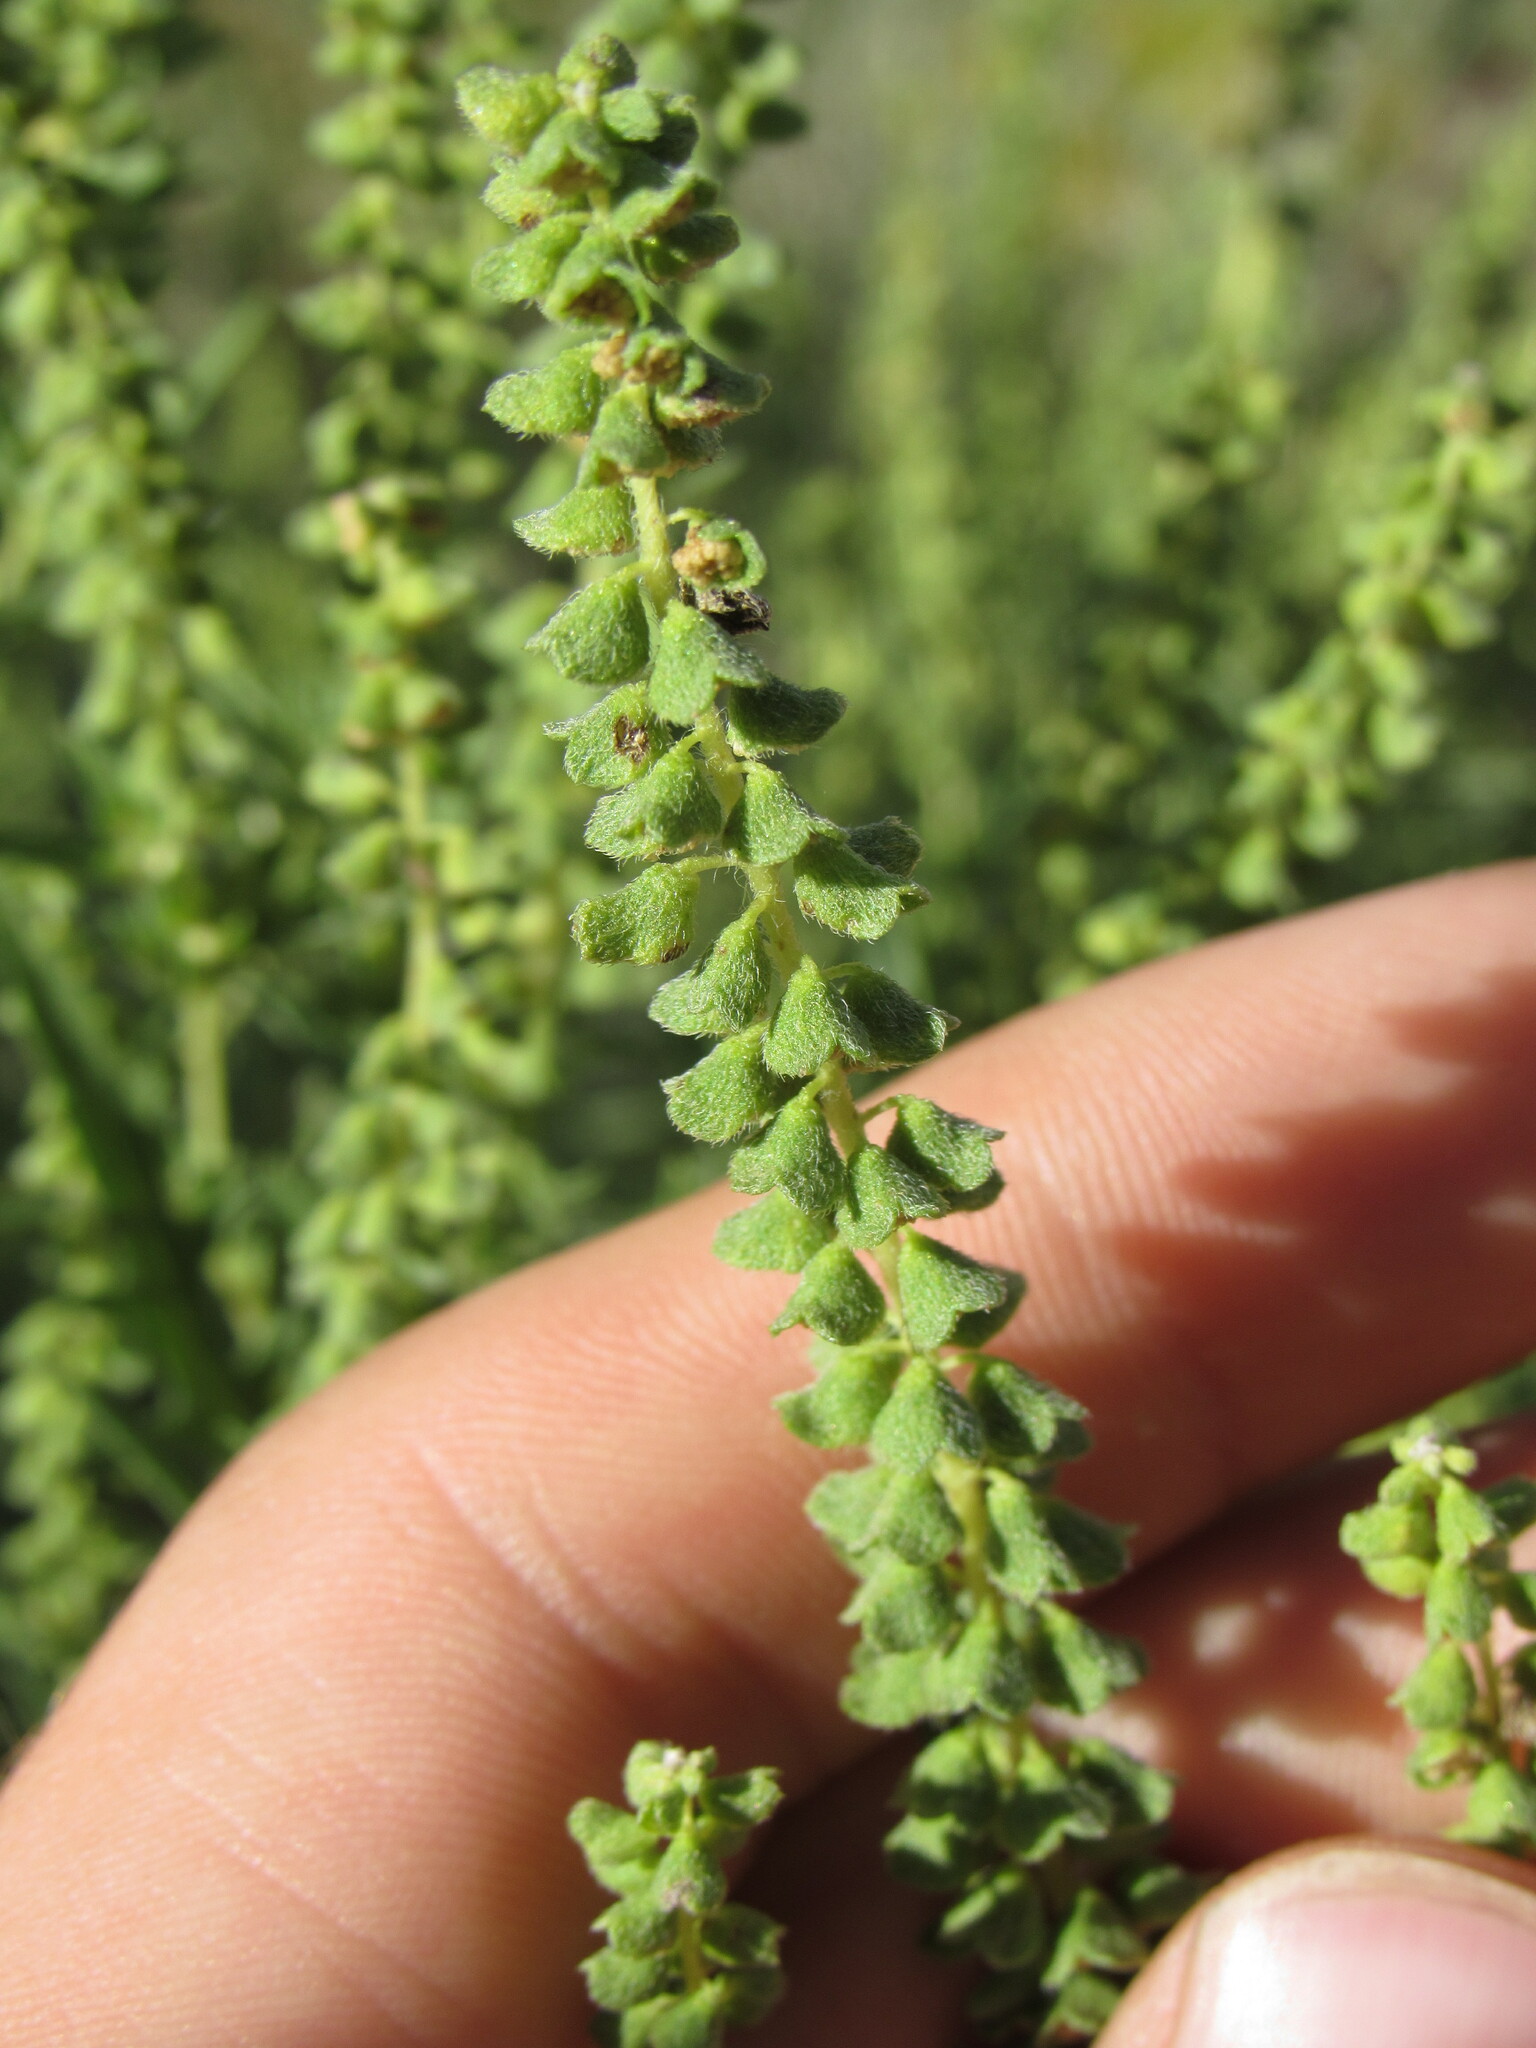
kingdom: Plantae
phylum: Tracheophyta
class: Magnoliopsida
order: Asterales
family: Asteraceae
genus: Ambrosia
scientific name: Ambrosia psilostachya
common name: Perennial ragweed
